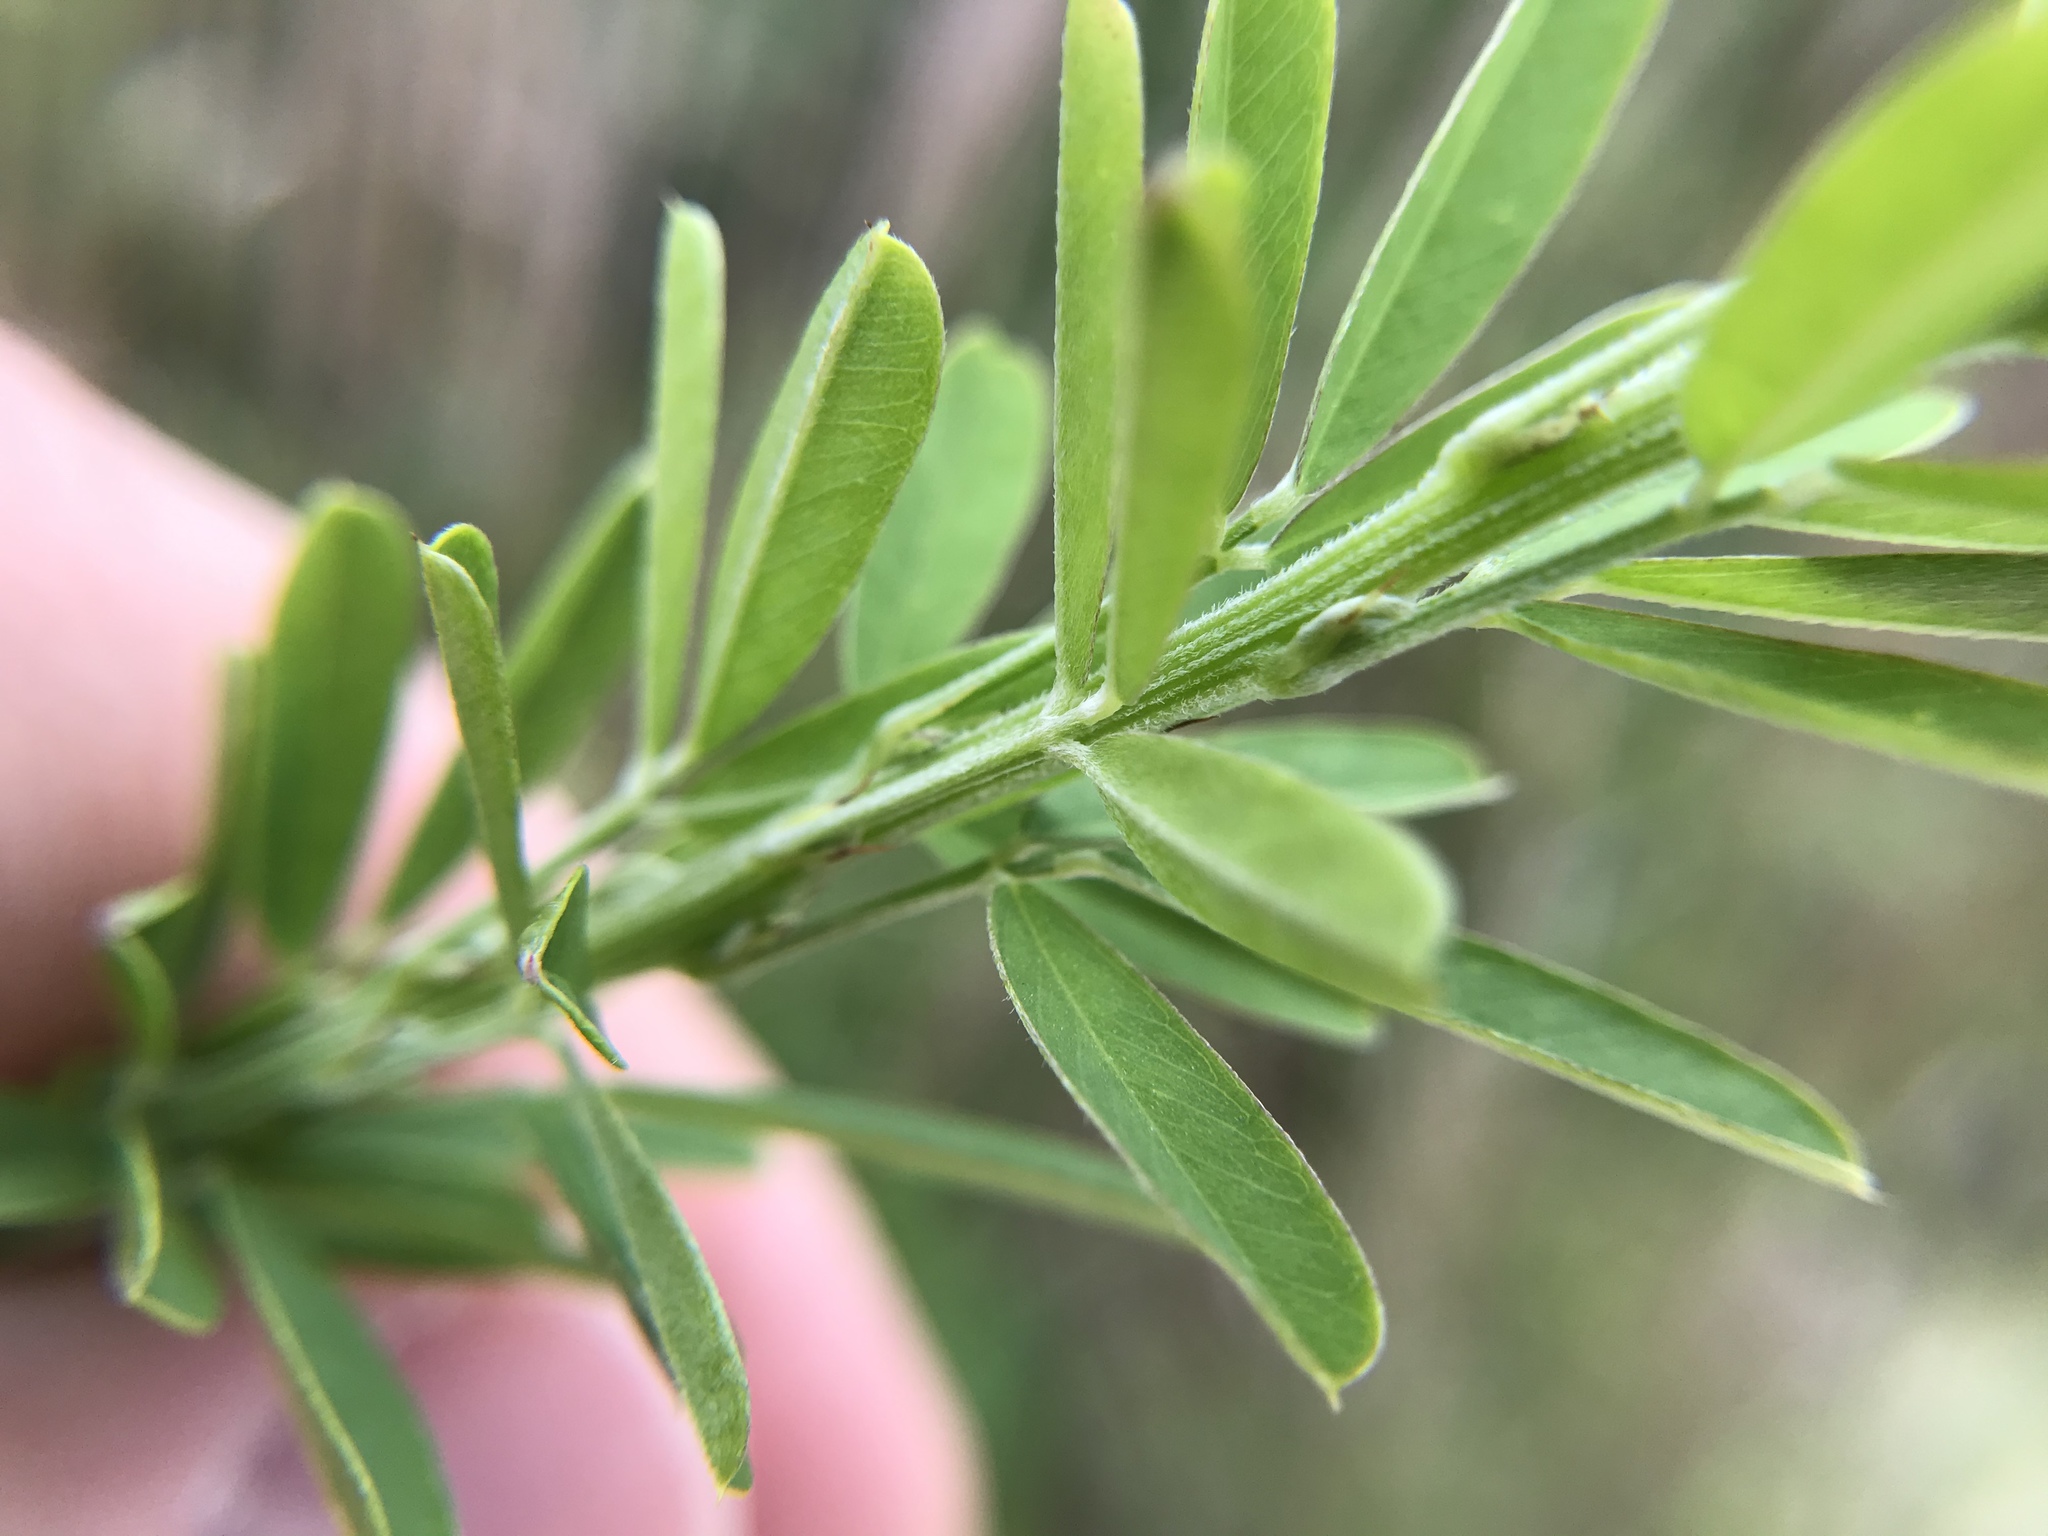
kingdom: Plantae
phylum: Tracheophyta
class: Magnoliopsida
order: Fabales
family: Fabaceae
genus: Lespedeza
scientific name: Lespedeza cuneata
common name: Chinese bush-clover
